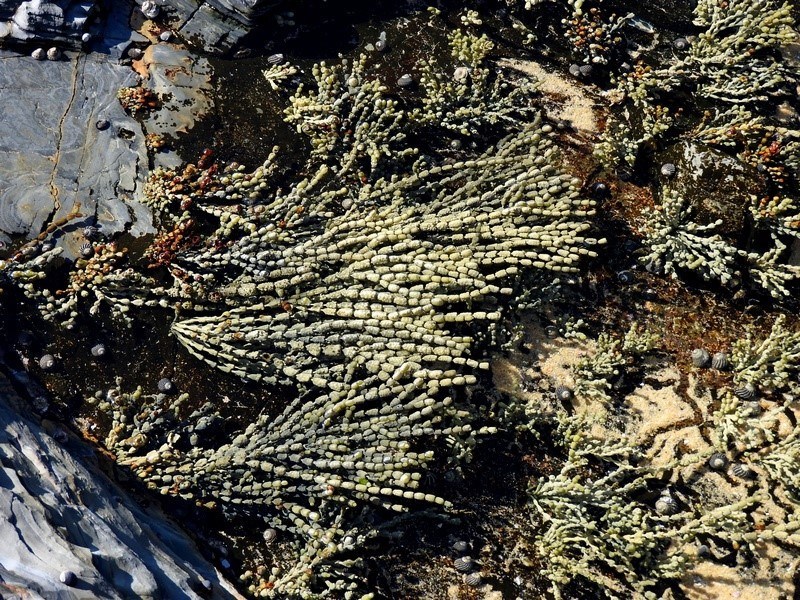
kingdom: Chromista
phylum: Ochrophyta
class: Phaeophyceae
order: Fucales
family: Hormosiraceae
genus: Hormosira
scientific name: Hormosira banksii
